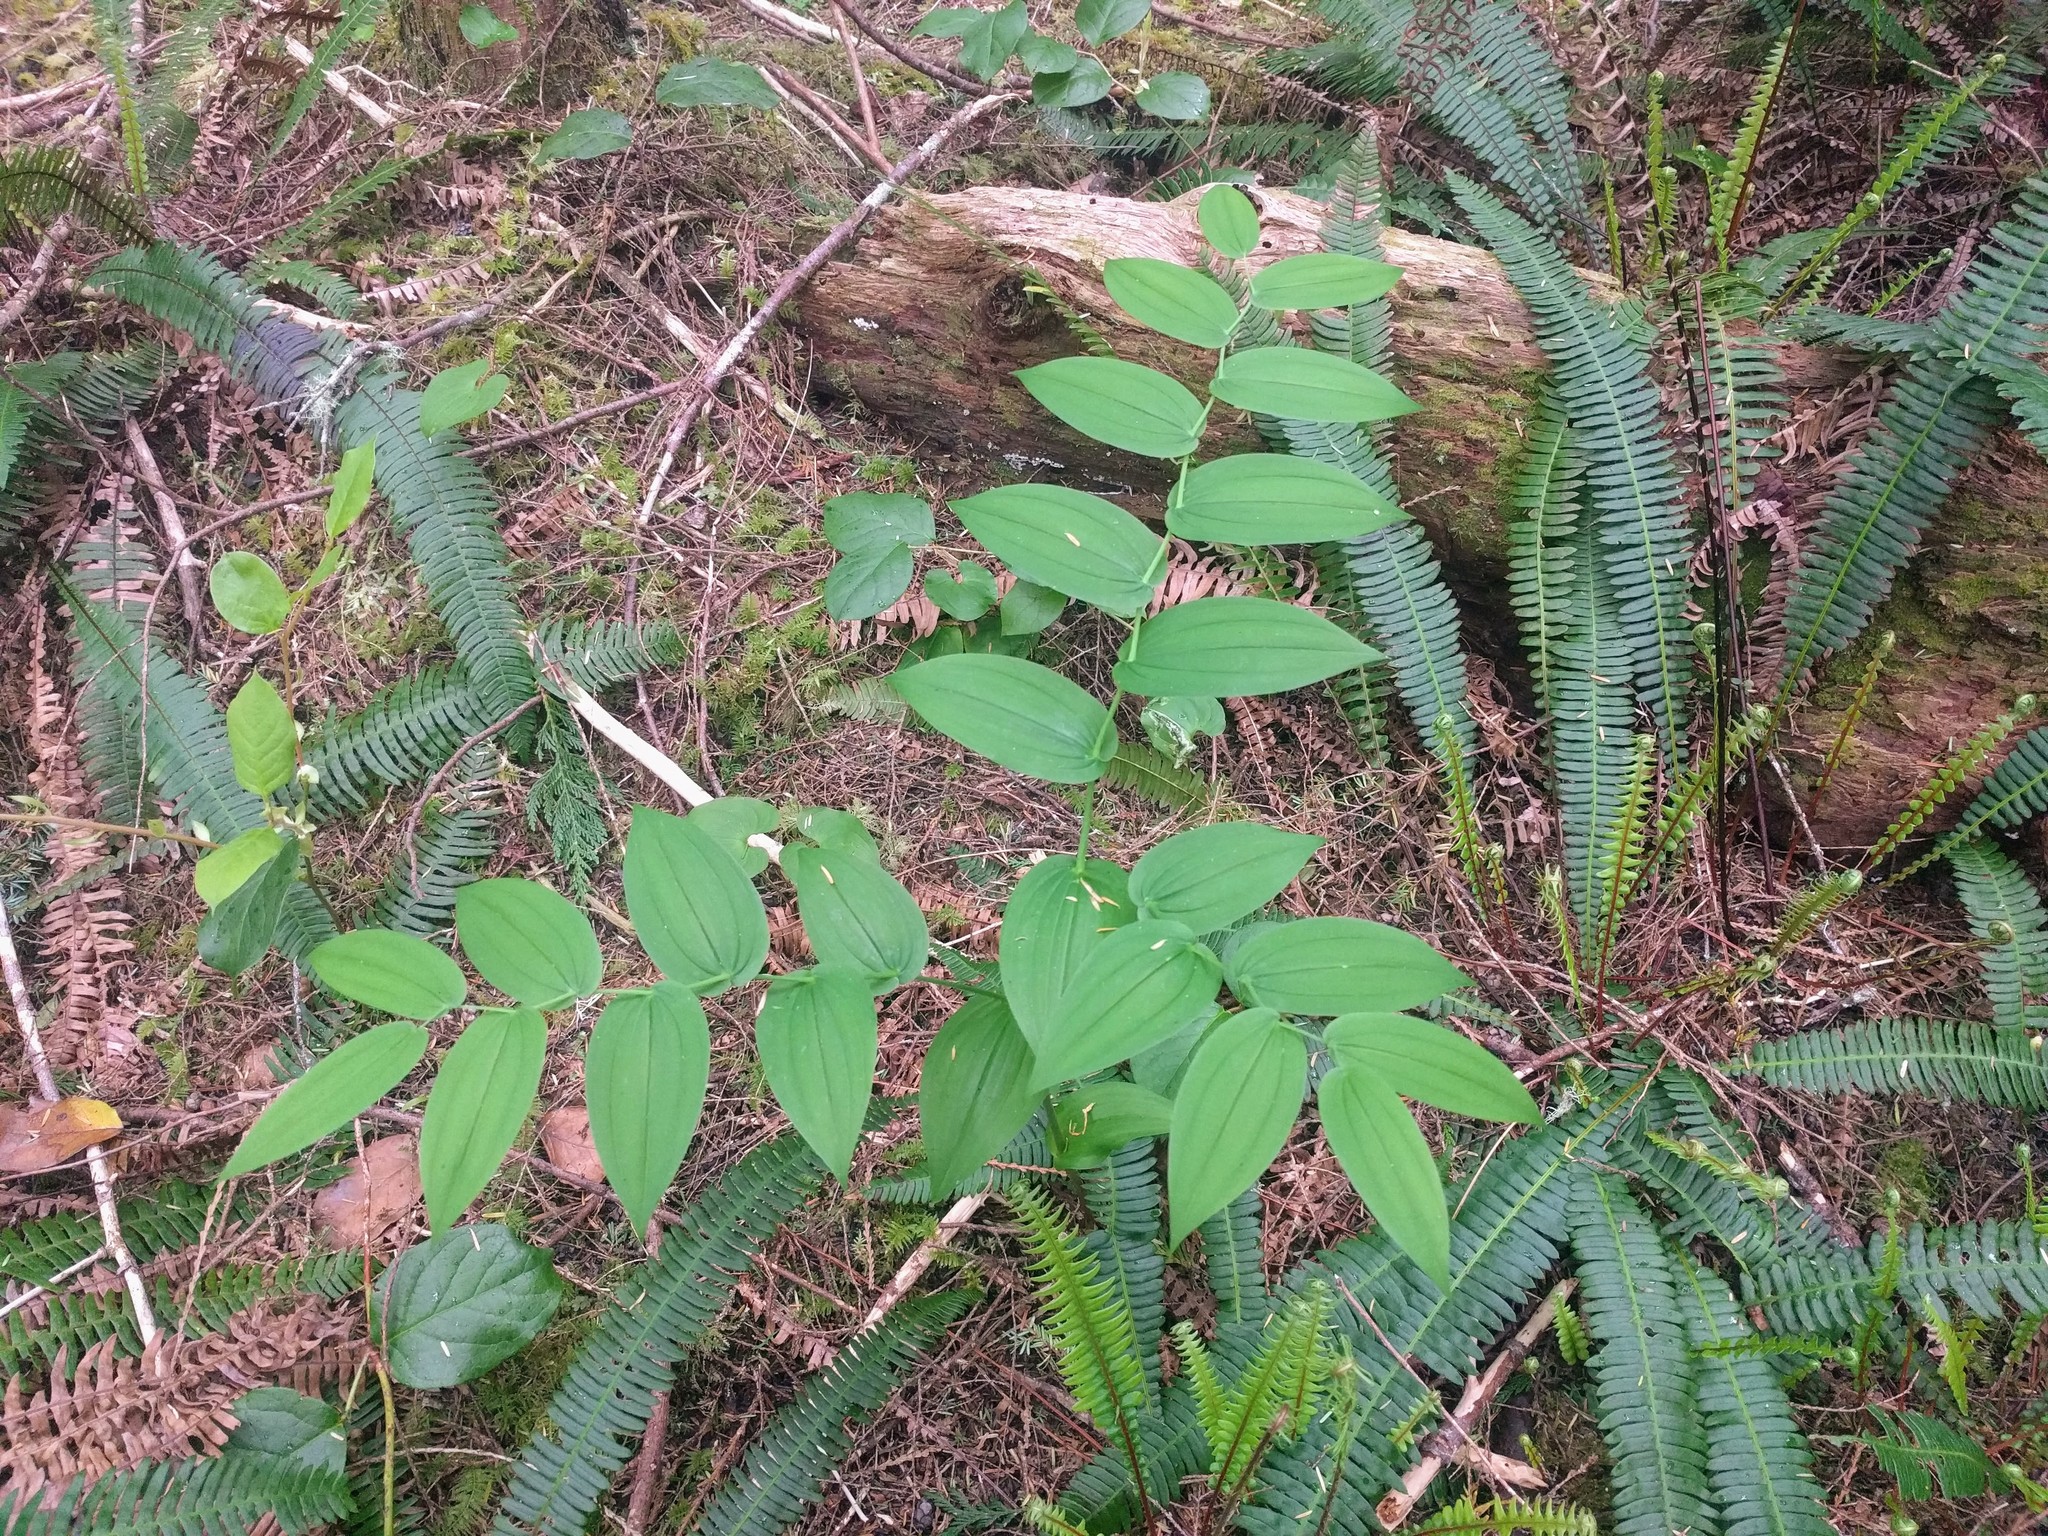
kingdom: Plantae
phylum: Tracheophyta
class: Liliopsida
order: Liliales
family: Liliaceae
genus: Streptopus
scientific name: Streptopus amplexifolius
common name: Clasp twisted stalk
